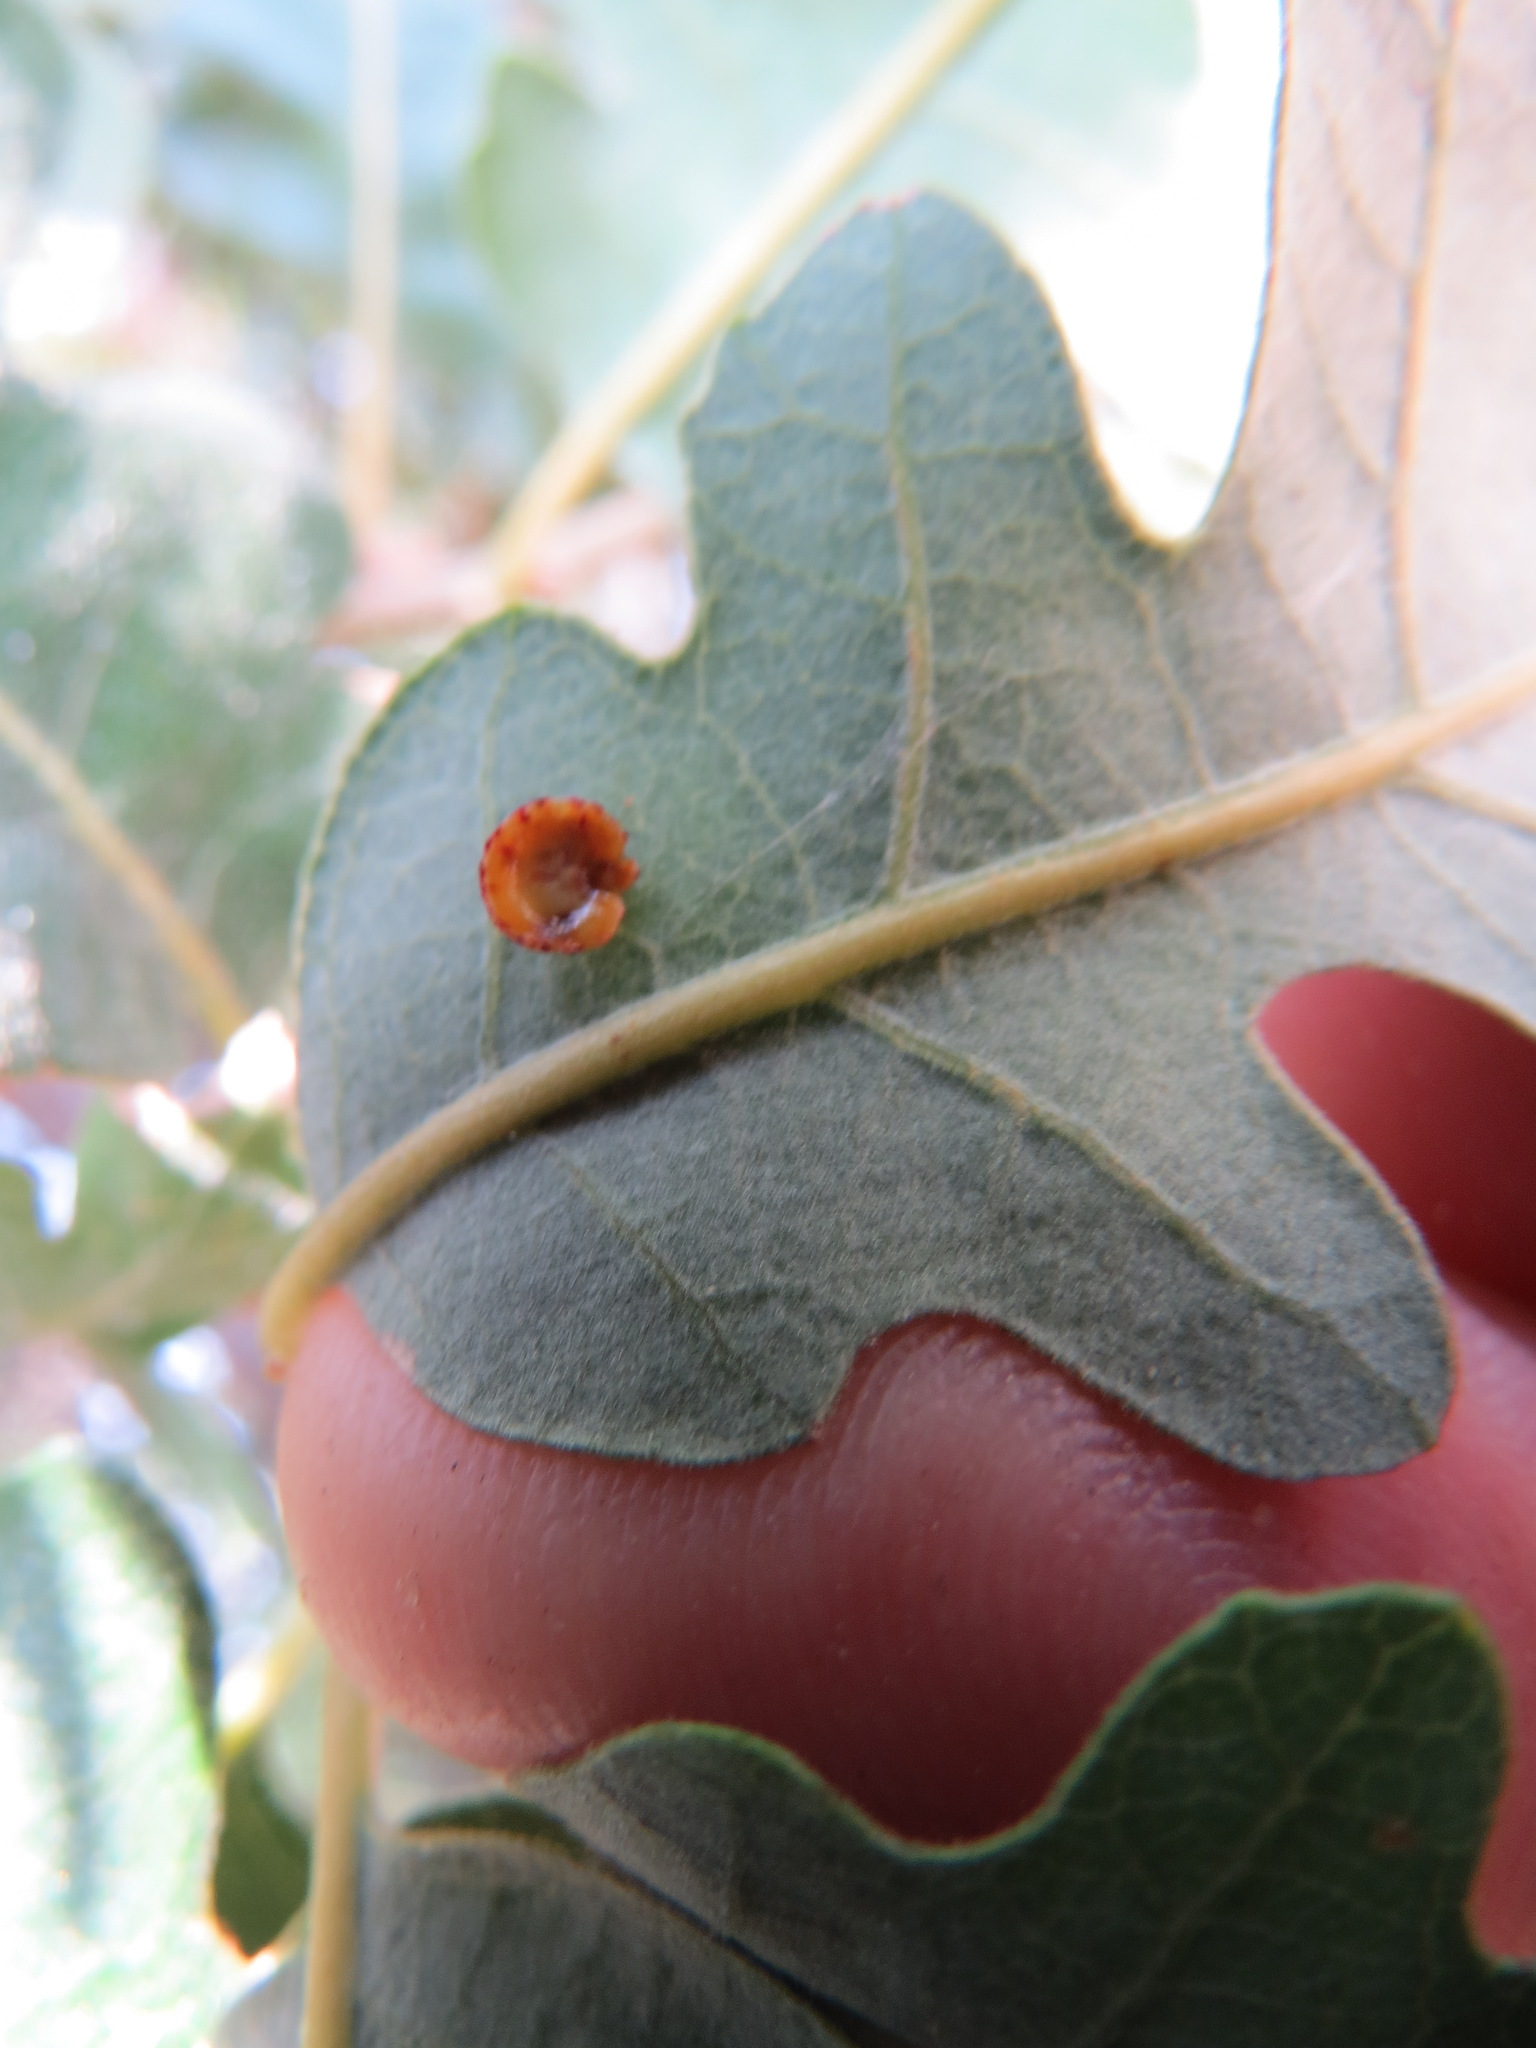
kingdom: Animalia
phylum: Arthropoda
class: Insecta
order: Hymenoptera
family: Cynipidae
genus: Andricus
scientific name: Andricus
